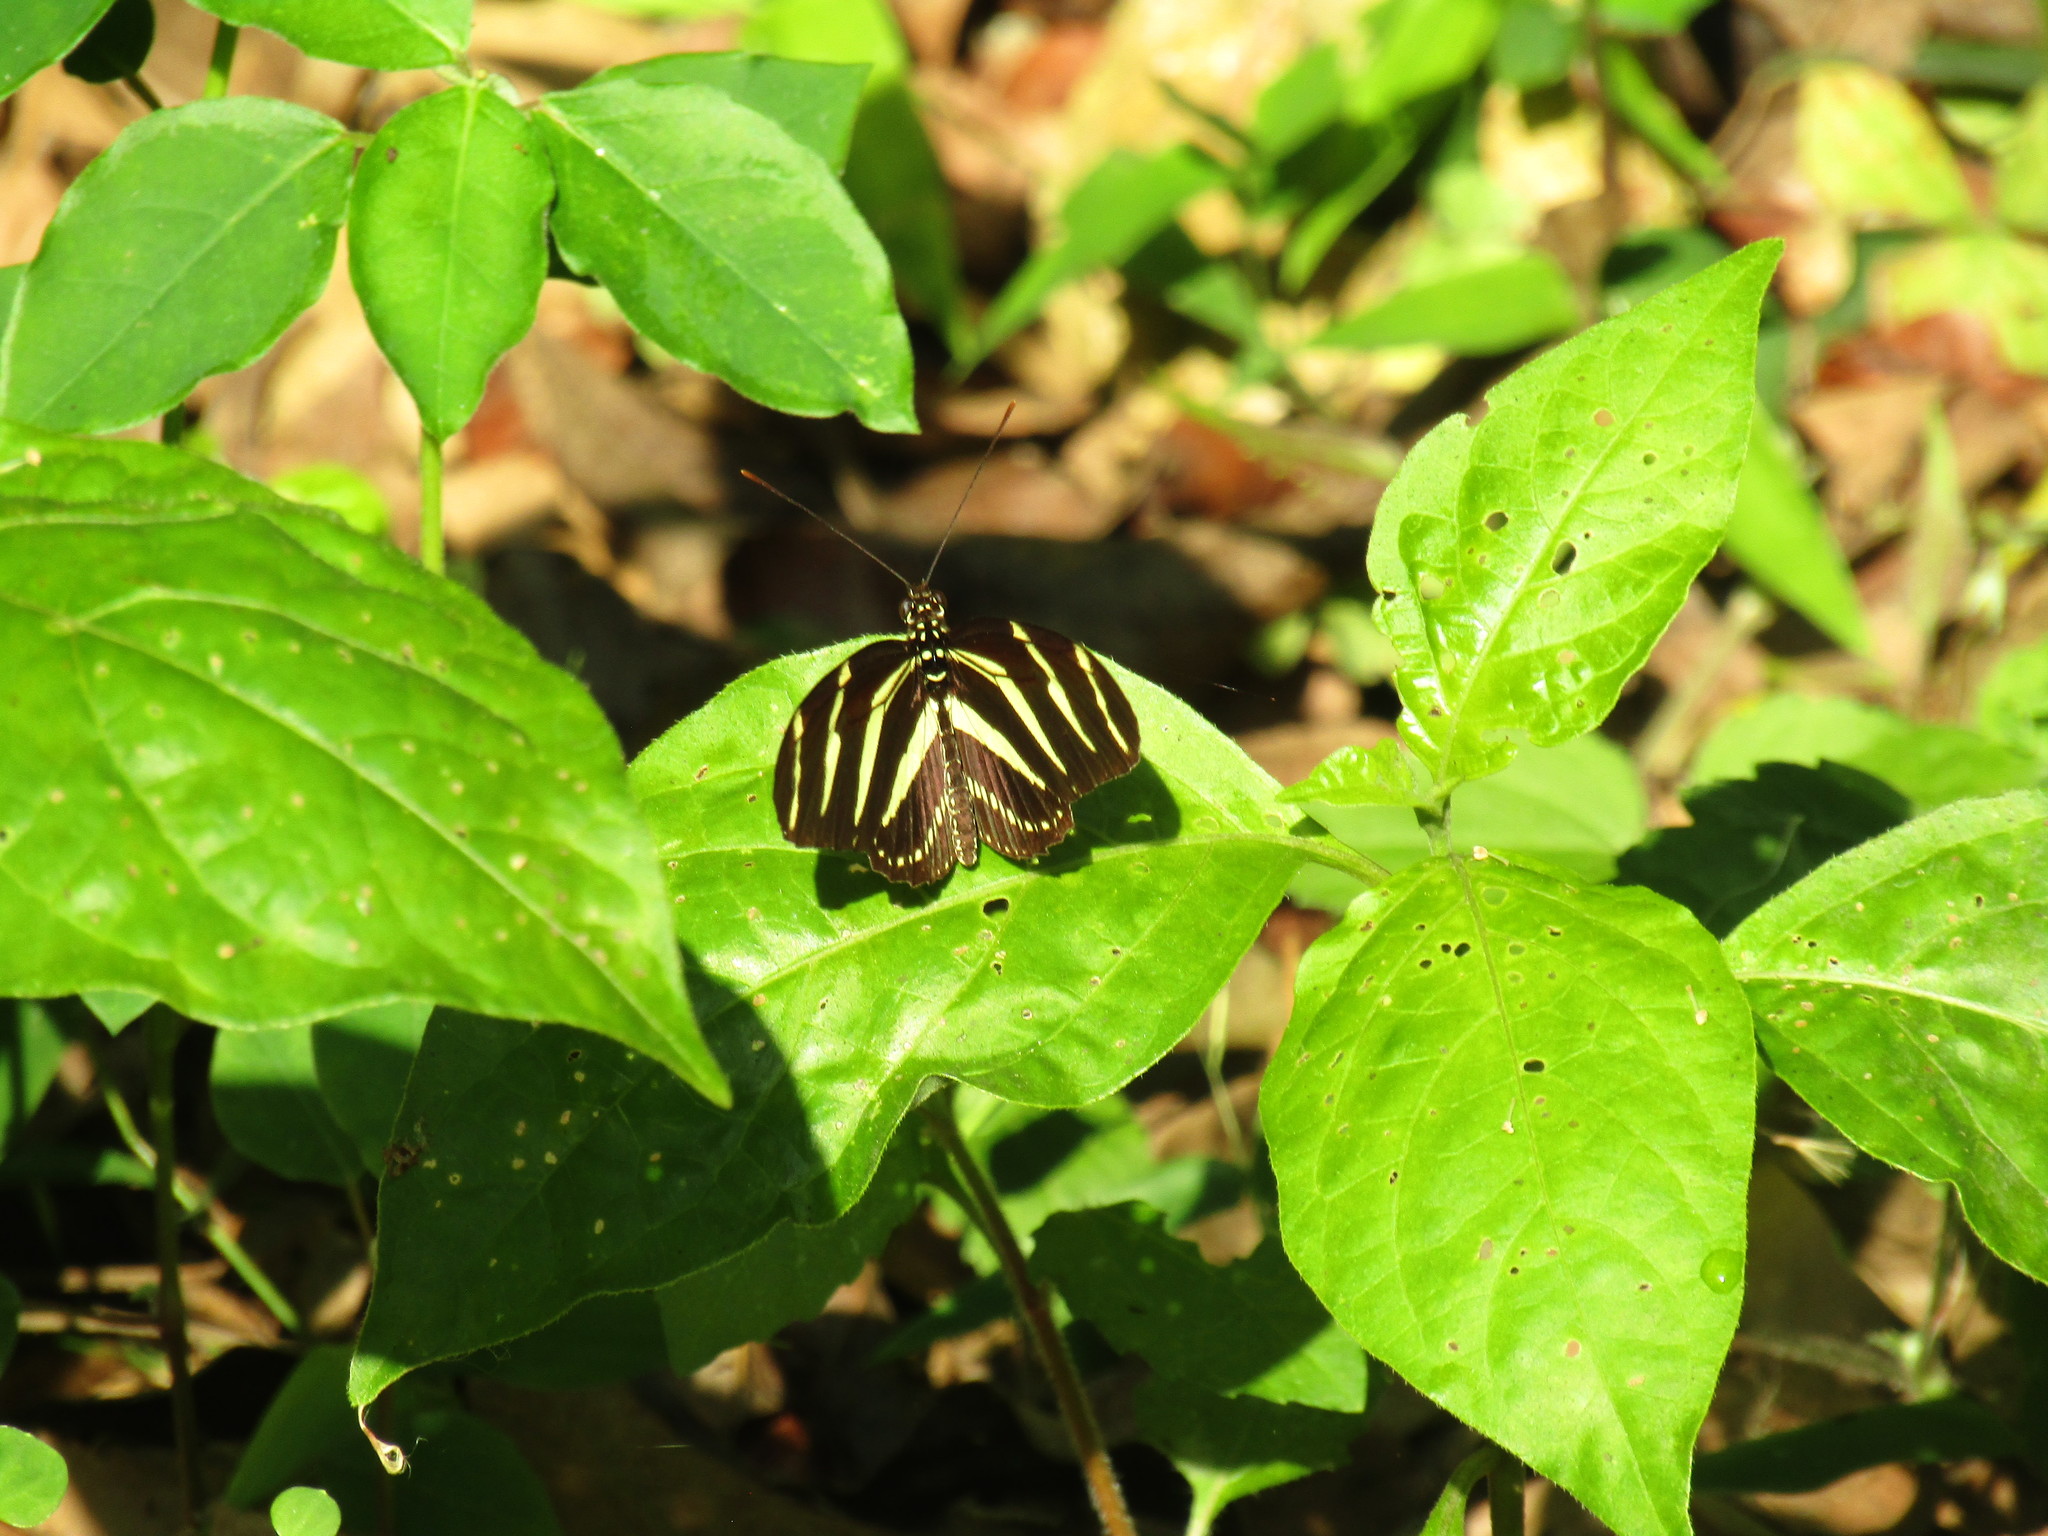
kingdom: Animalia
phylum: Arthropoda
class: Insecta
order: Lepidoptera
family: Nymphalidae
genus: Heliconius
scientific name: Heliconius charithonia
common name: Zebra long wing
